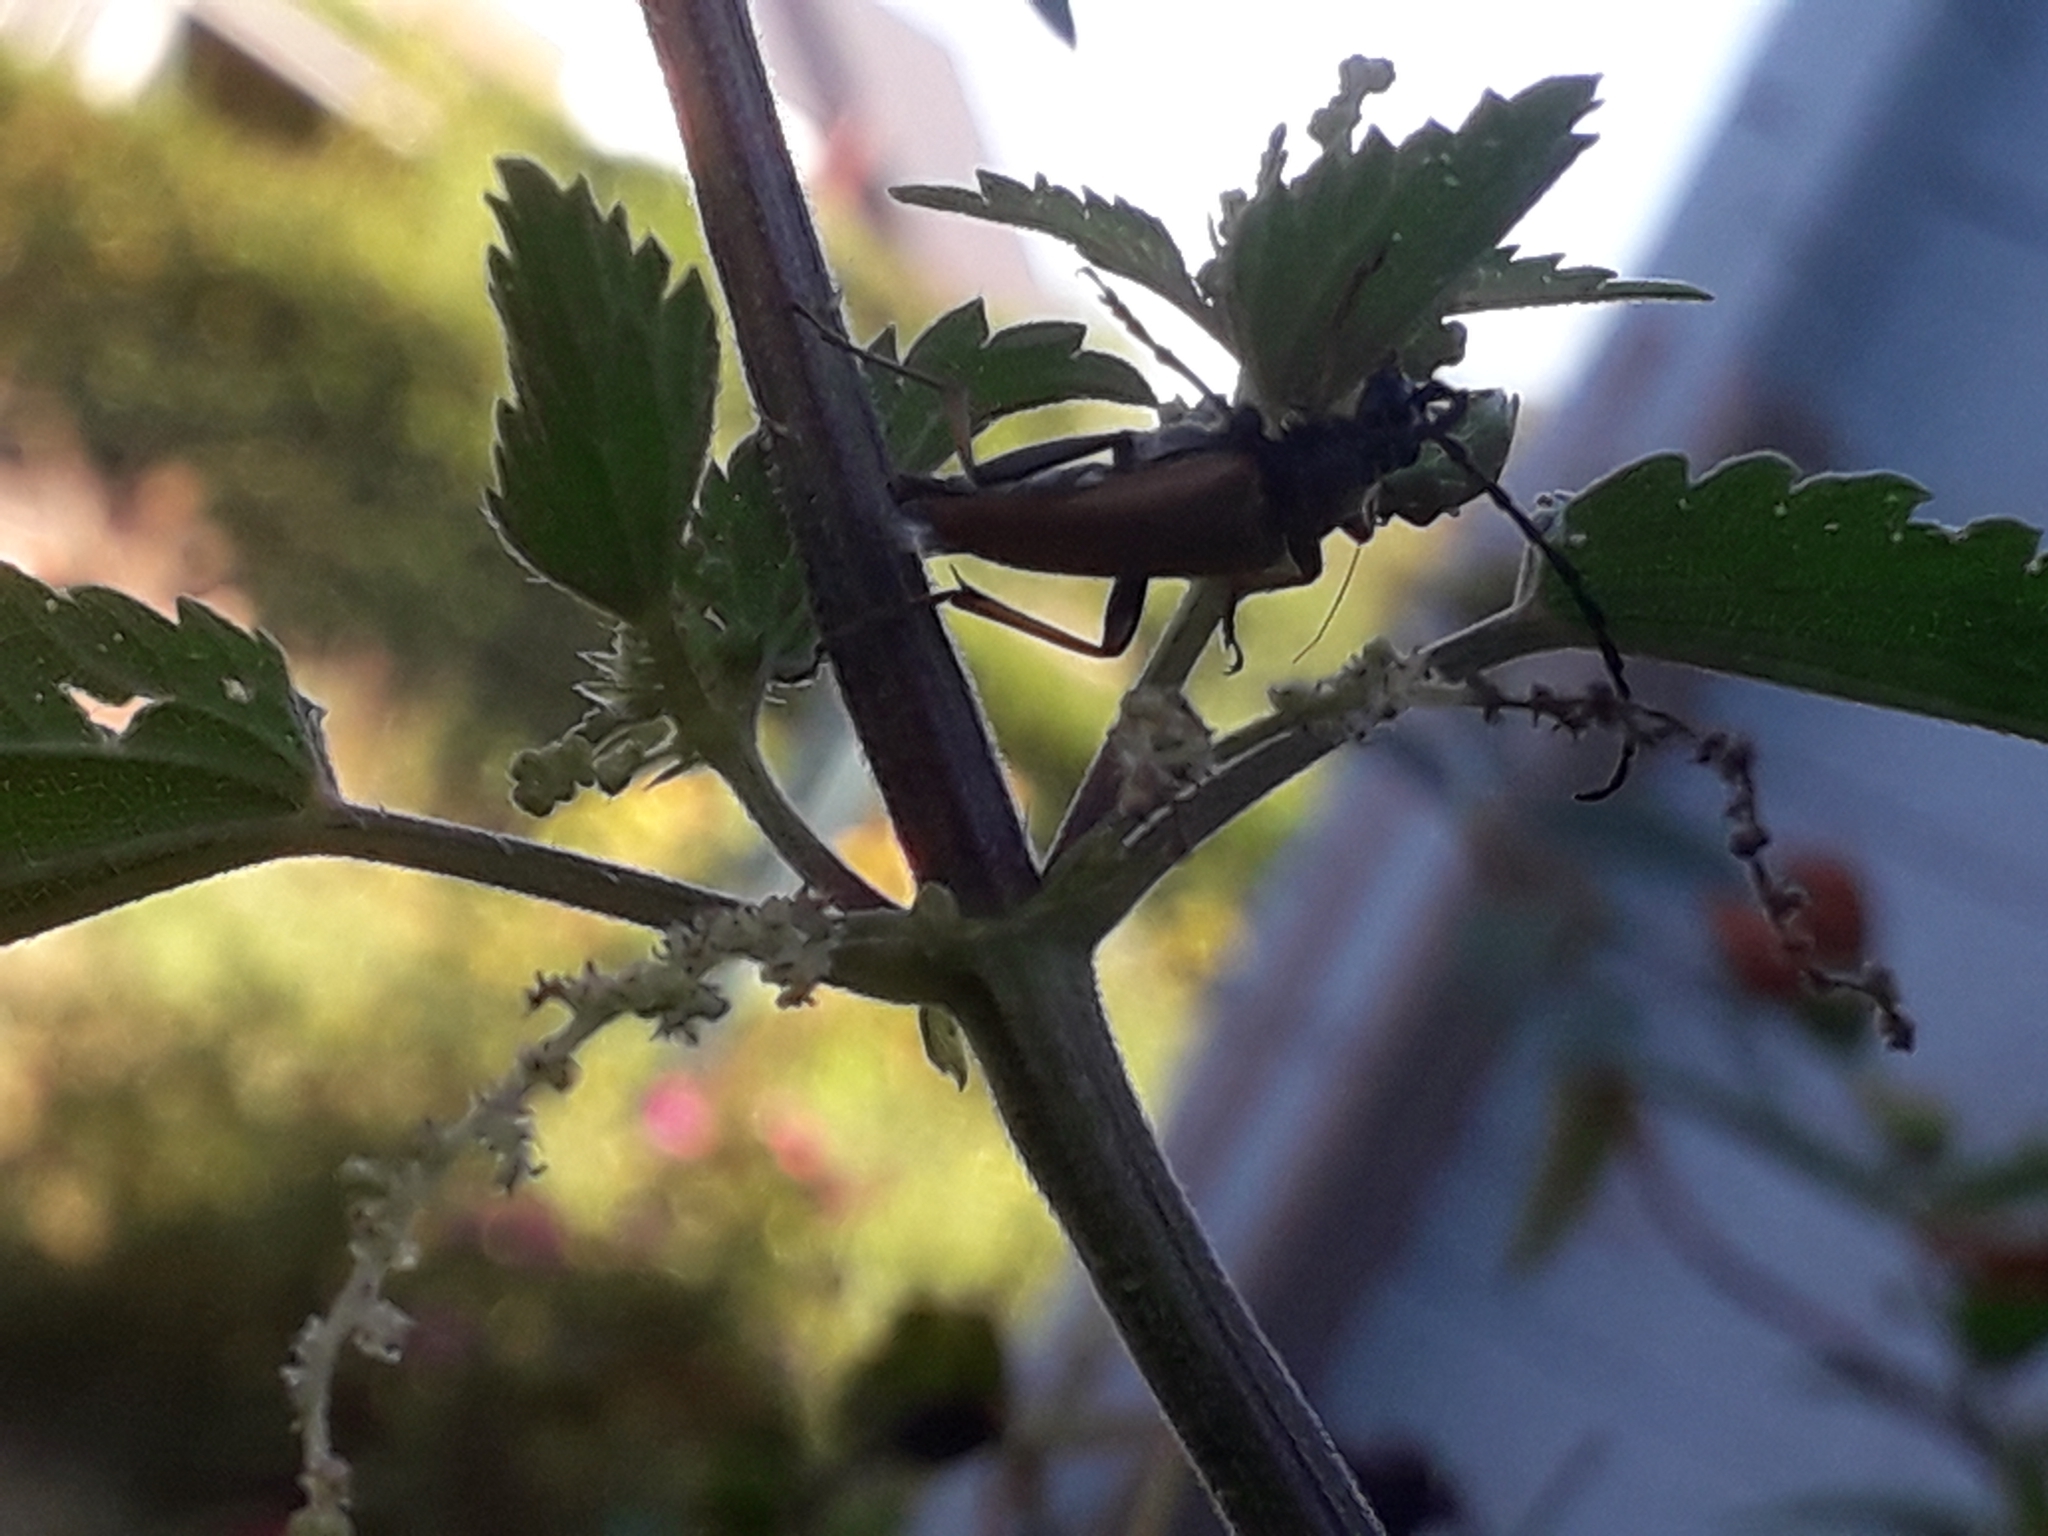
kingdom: Animalia
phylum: Arthropoda
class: Insecta
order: Coleoptera
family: Cerambycidae
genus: Stictoleptura
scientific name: Stictoleptura rubra
